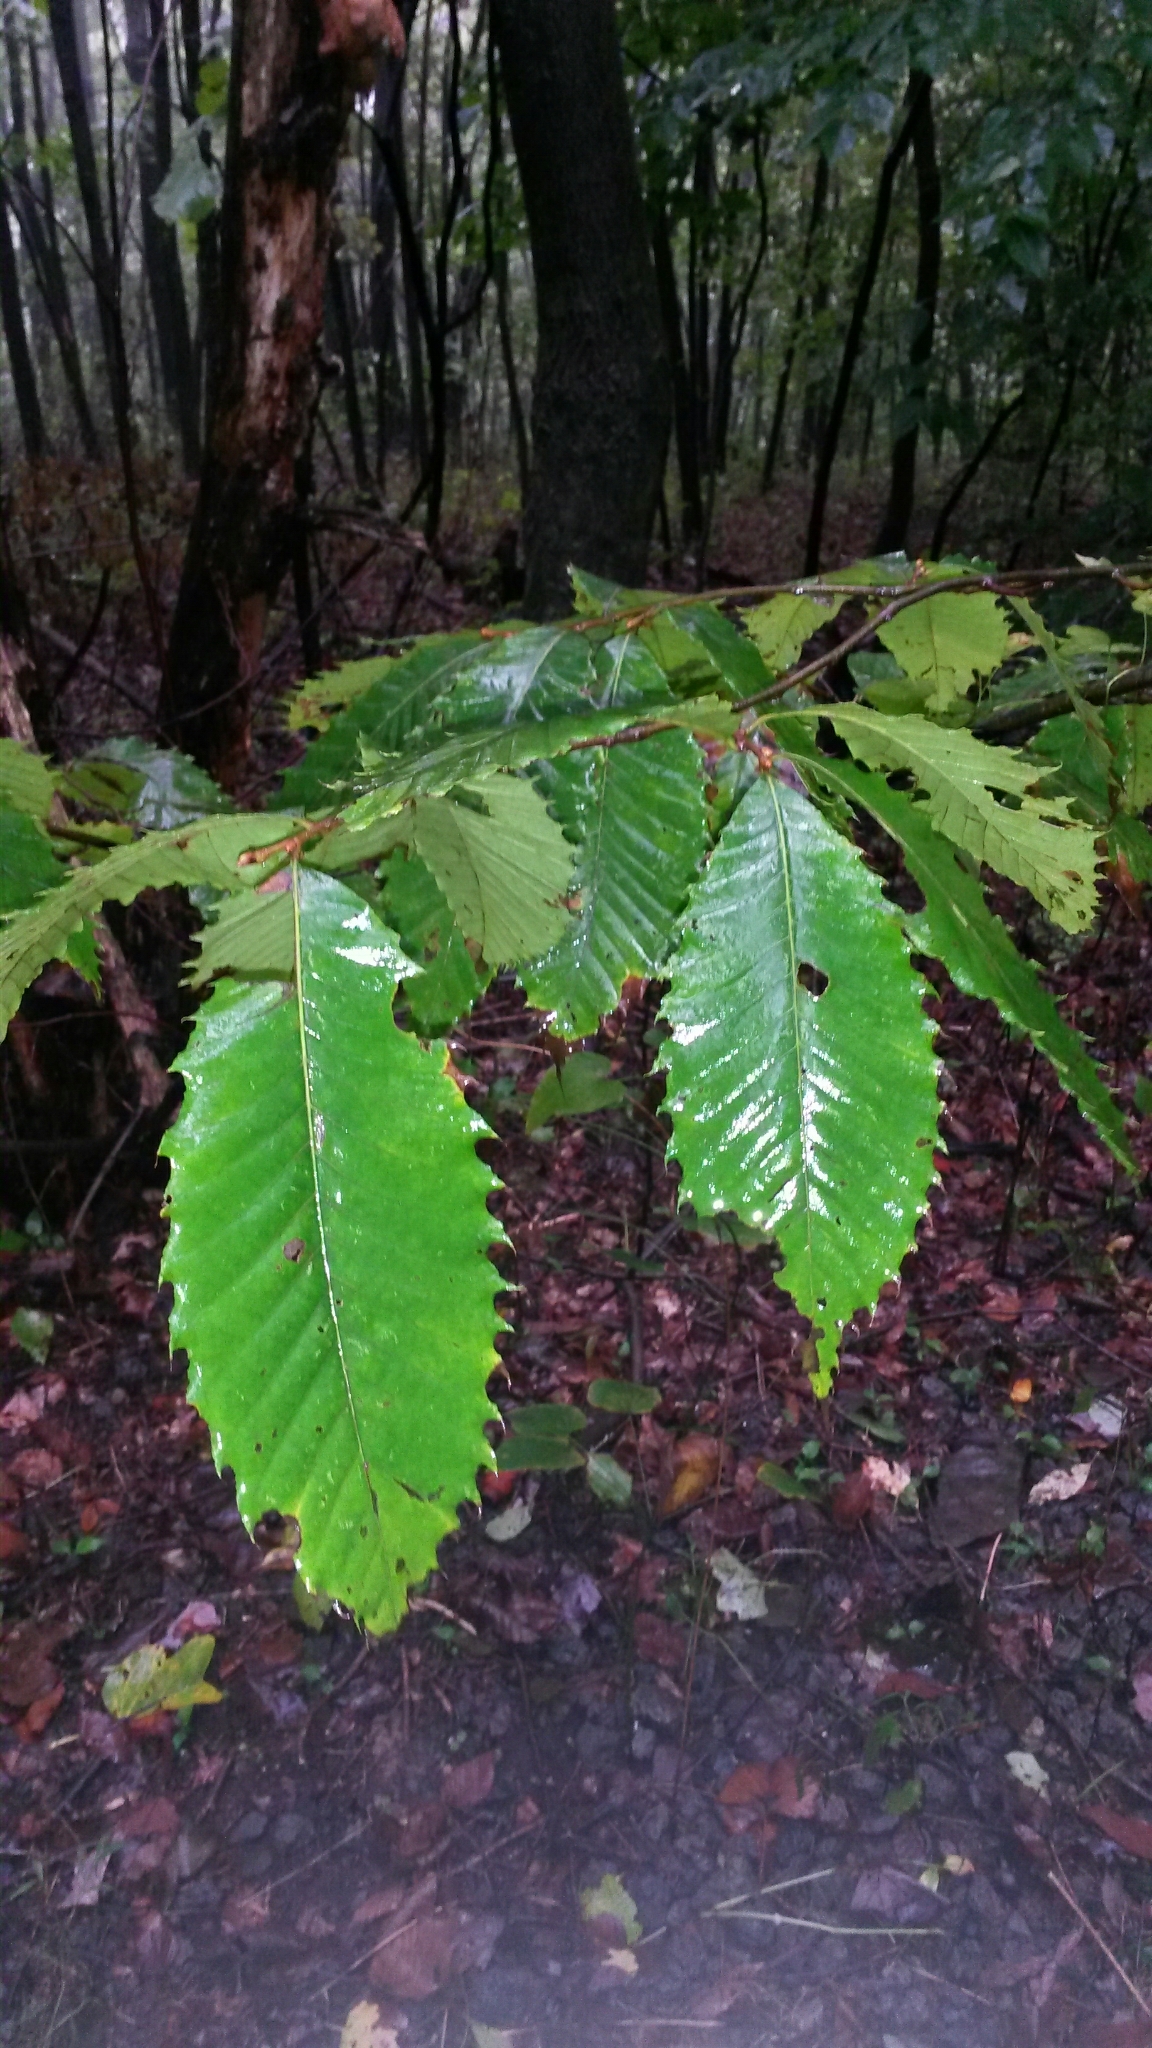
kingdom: Plantae
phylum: Tracheophyta
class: Magnoliopsida
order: Fagales
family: Fagaceae
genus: Castanea
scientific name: Castanea dentata
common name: American chestnut
